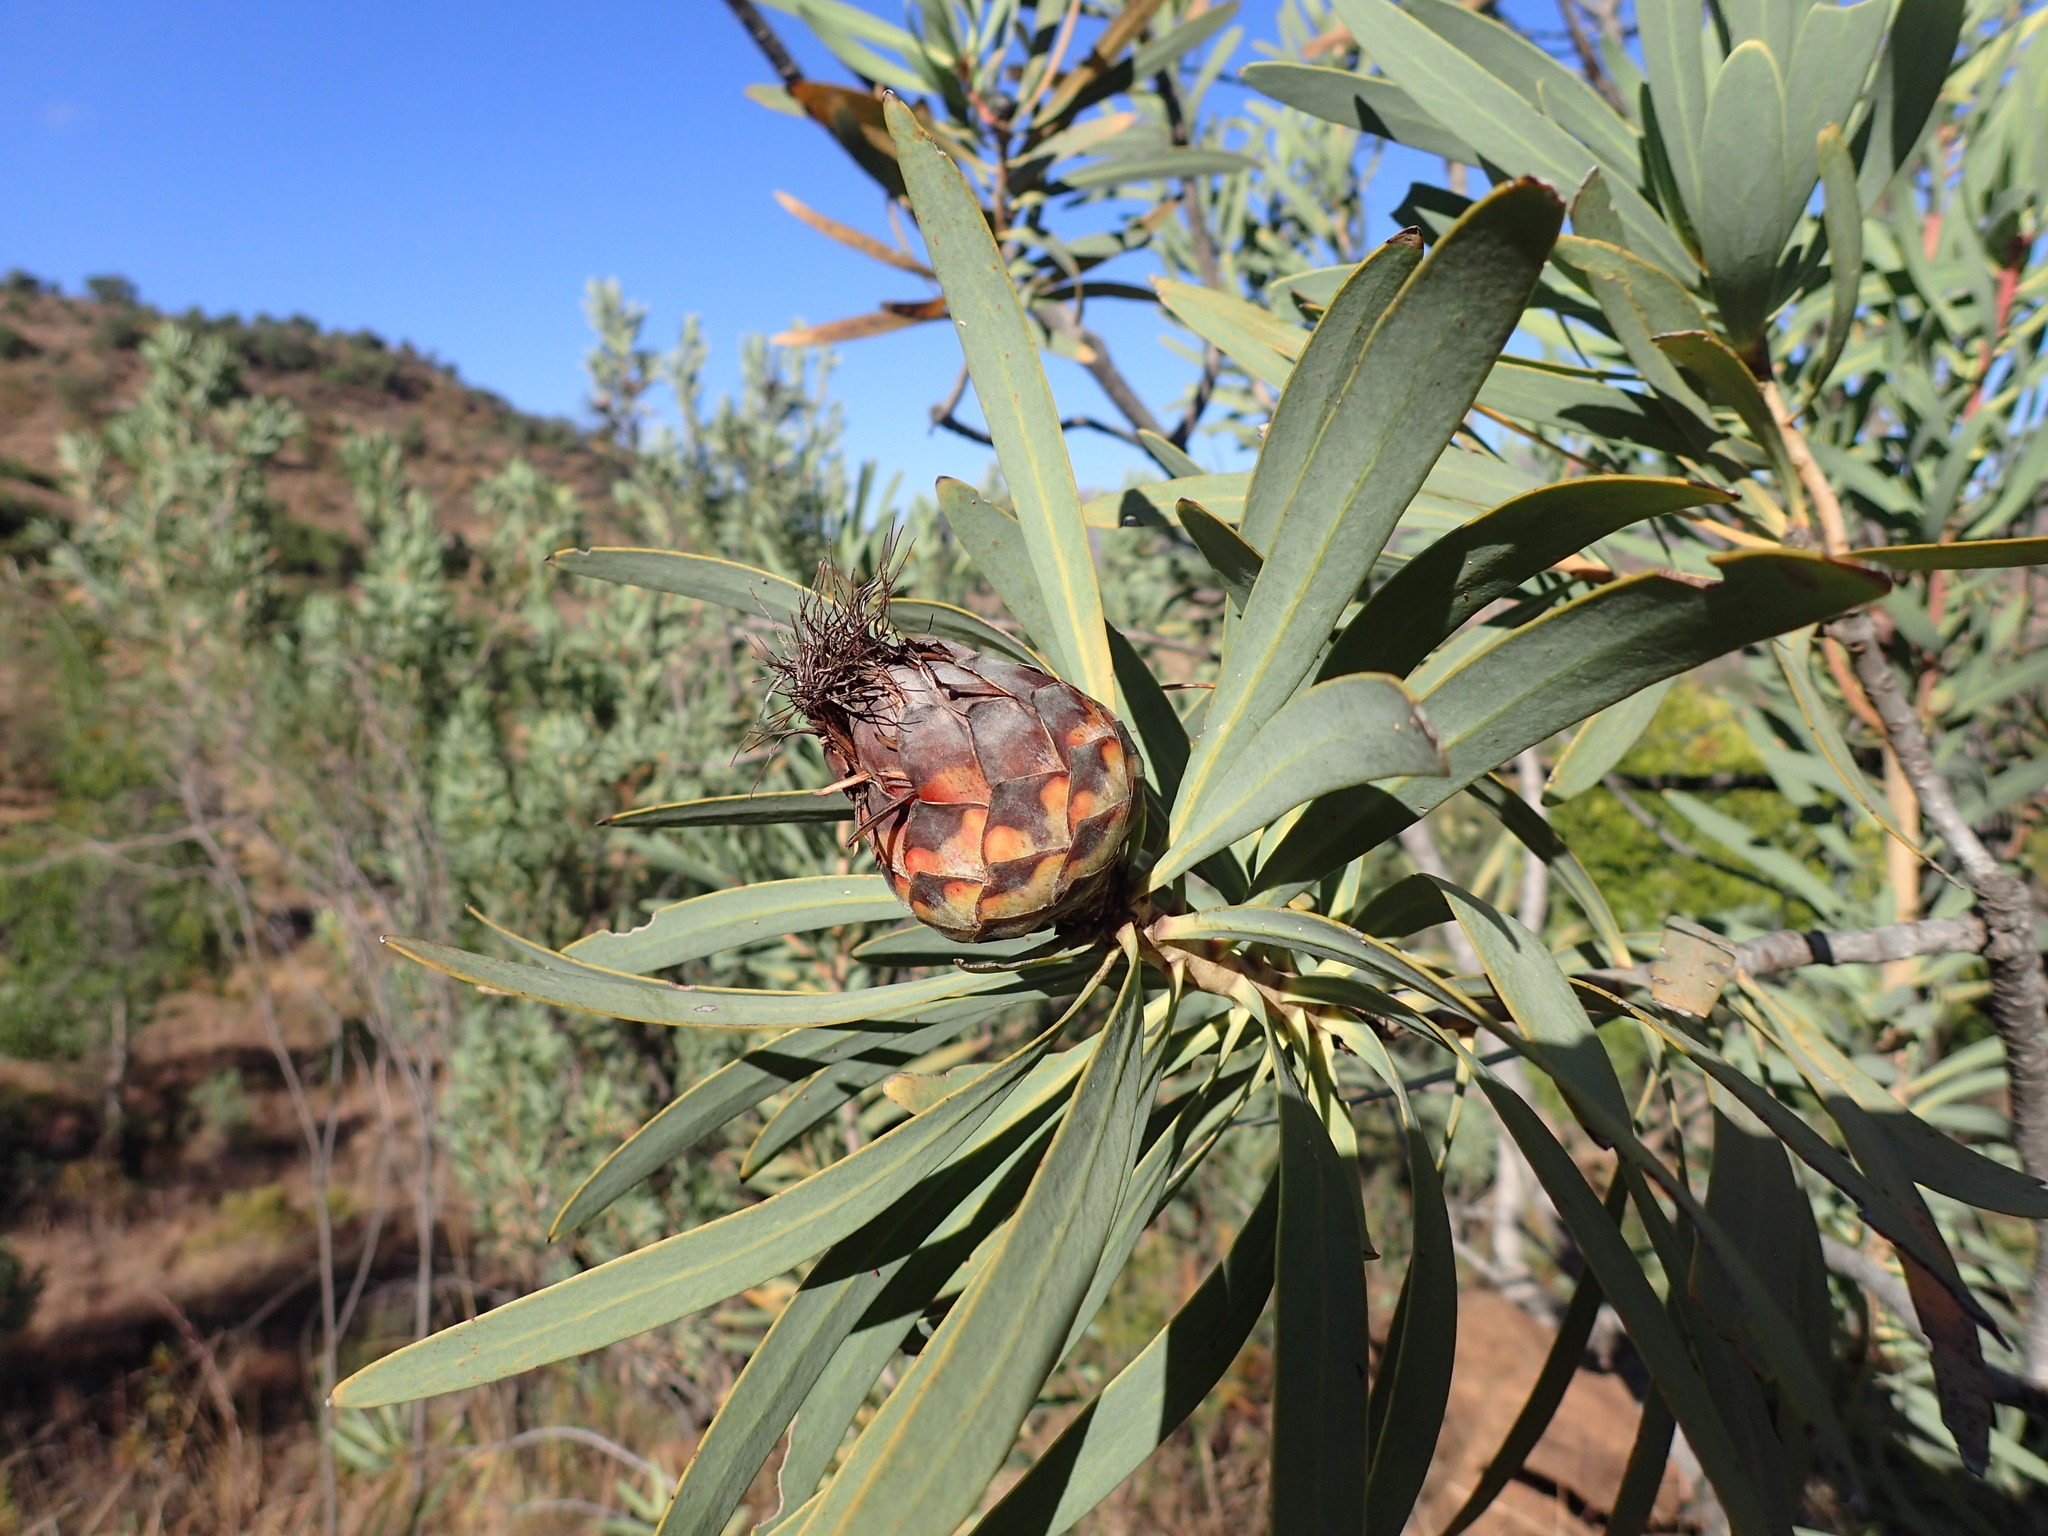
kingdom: Plantae
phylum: Tracheophyta
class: Magnoliopsida
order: Proteales
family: Proteaceae
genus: Protea
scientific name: Protea caffra
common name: Common sugarbush
